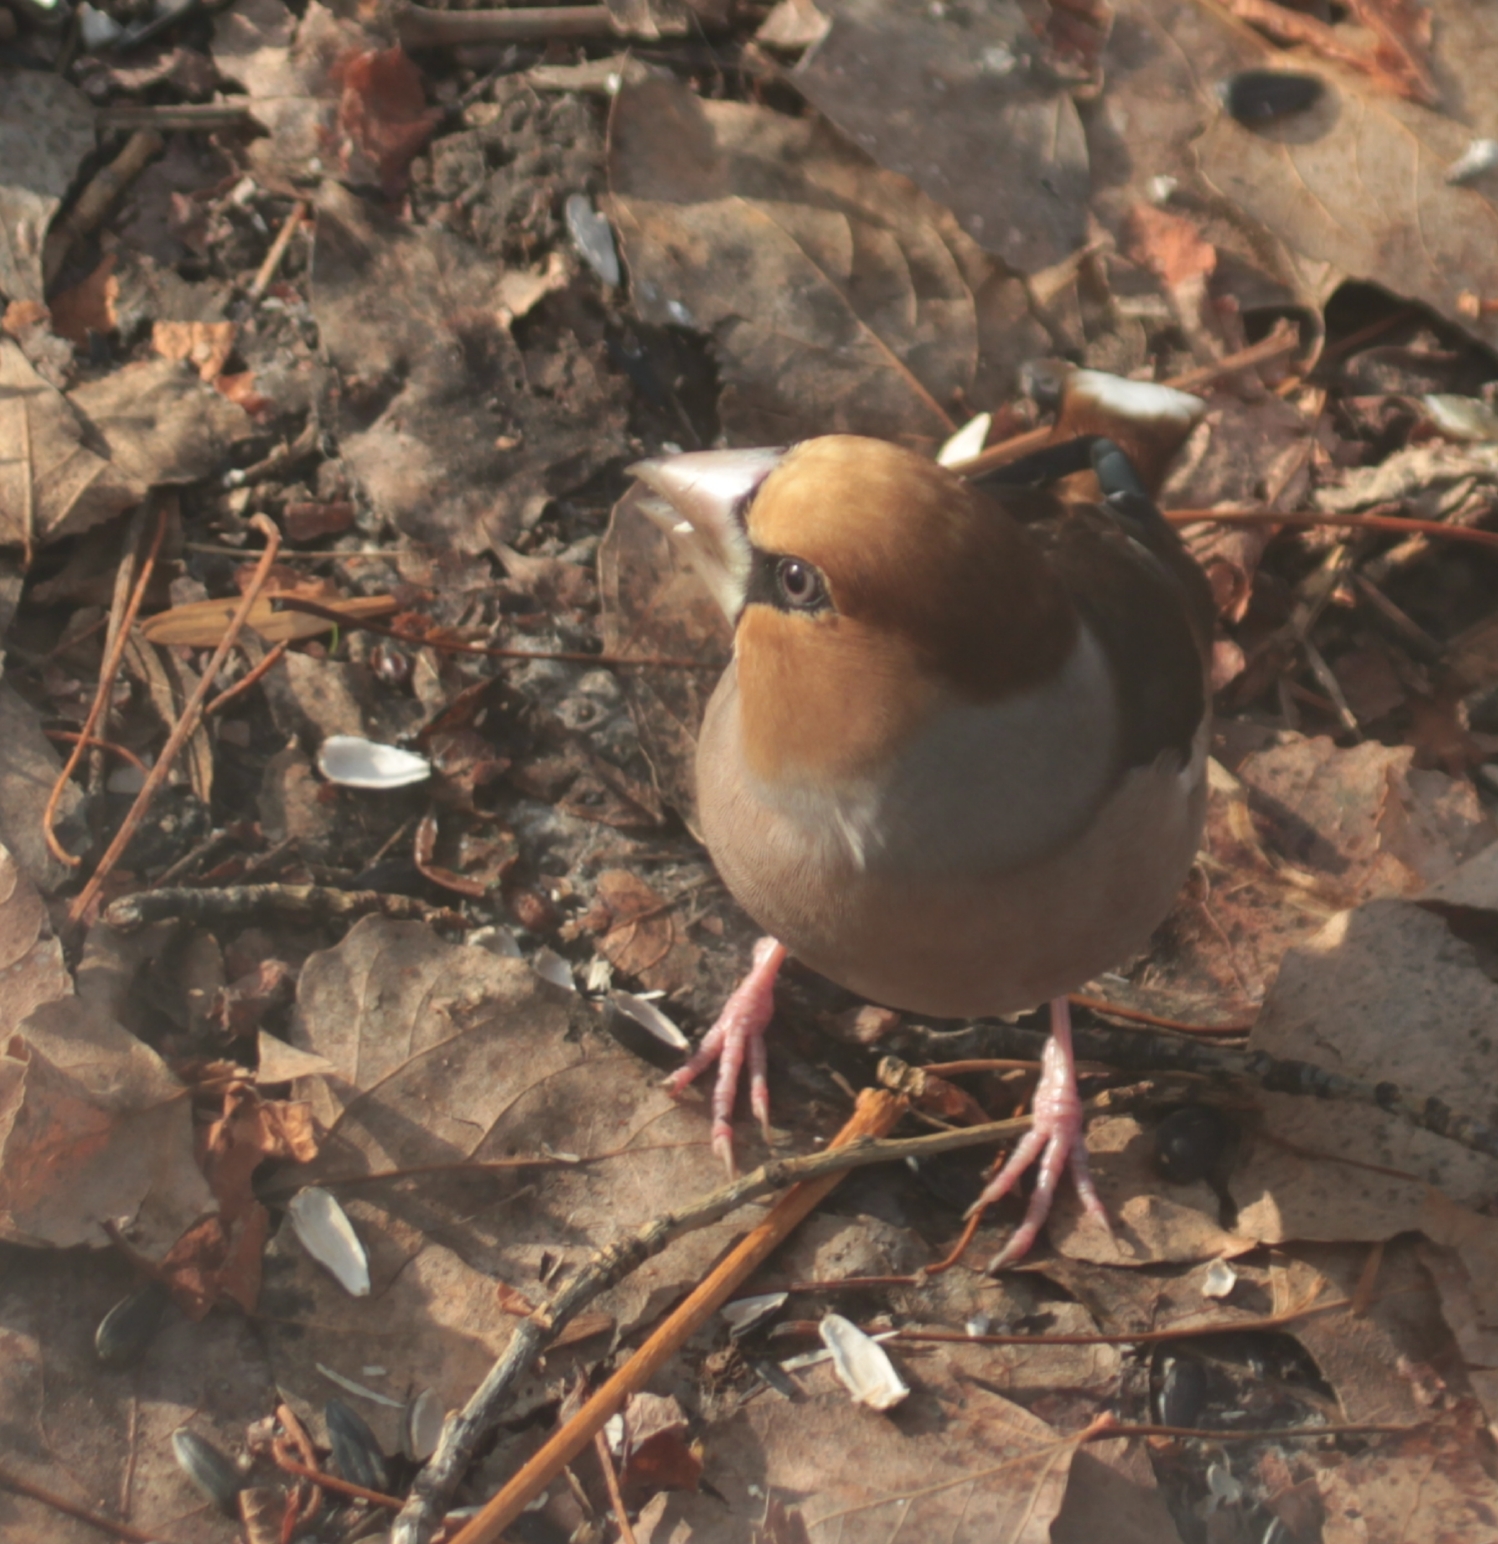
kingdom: Animalia
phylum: Chordata
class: Aves
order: Passeriformes
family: Fringillidae
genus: Coccothraustes
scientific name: Coccothraustes coccothraustes
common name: Hawfinch
